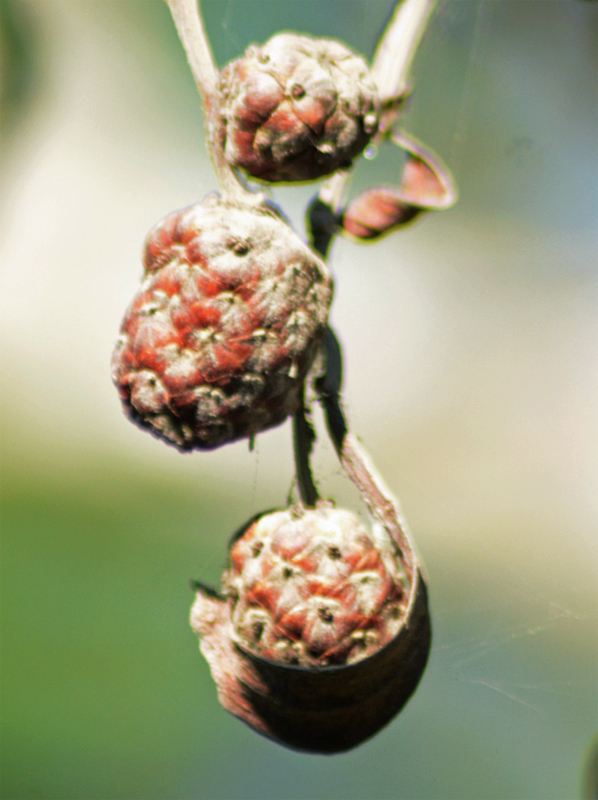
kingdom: Plantae
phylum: Tracheophyta
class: Magnoliopsida
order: Myrtales
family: Combretaceae
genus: Conocarpus
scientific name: Conocarpus erectus
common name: Button mangrove
